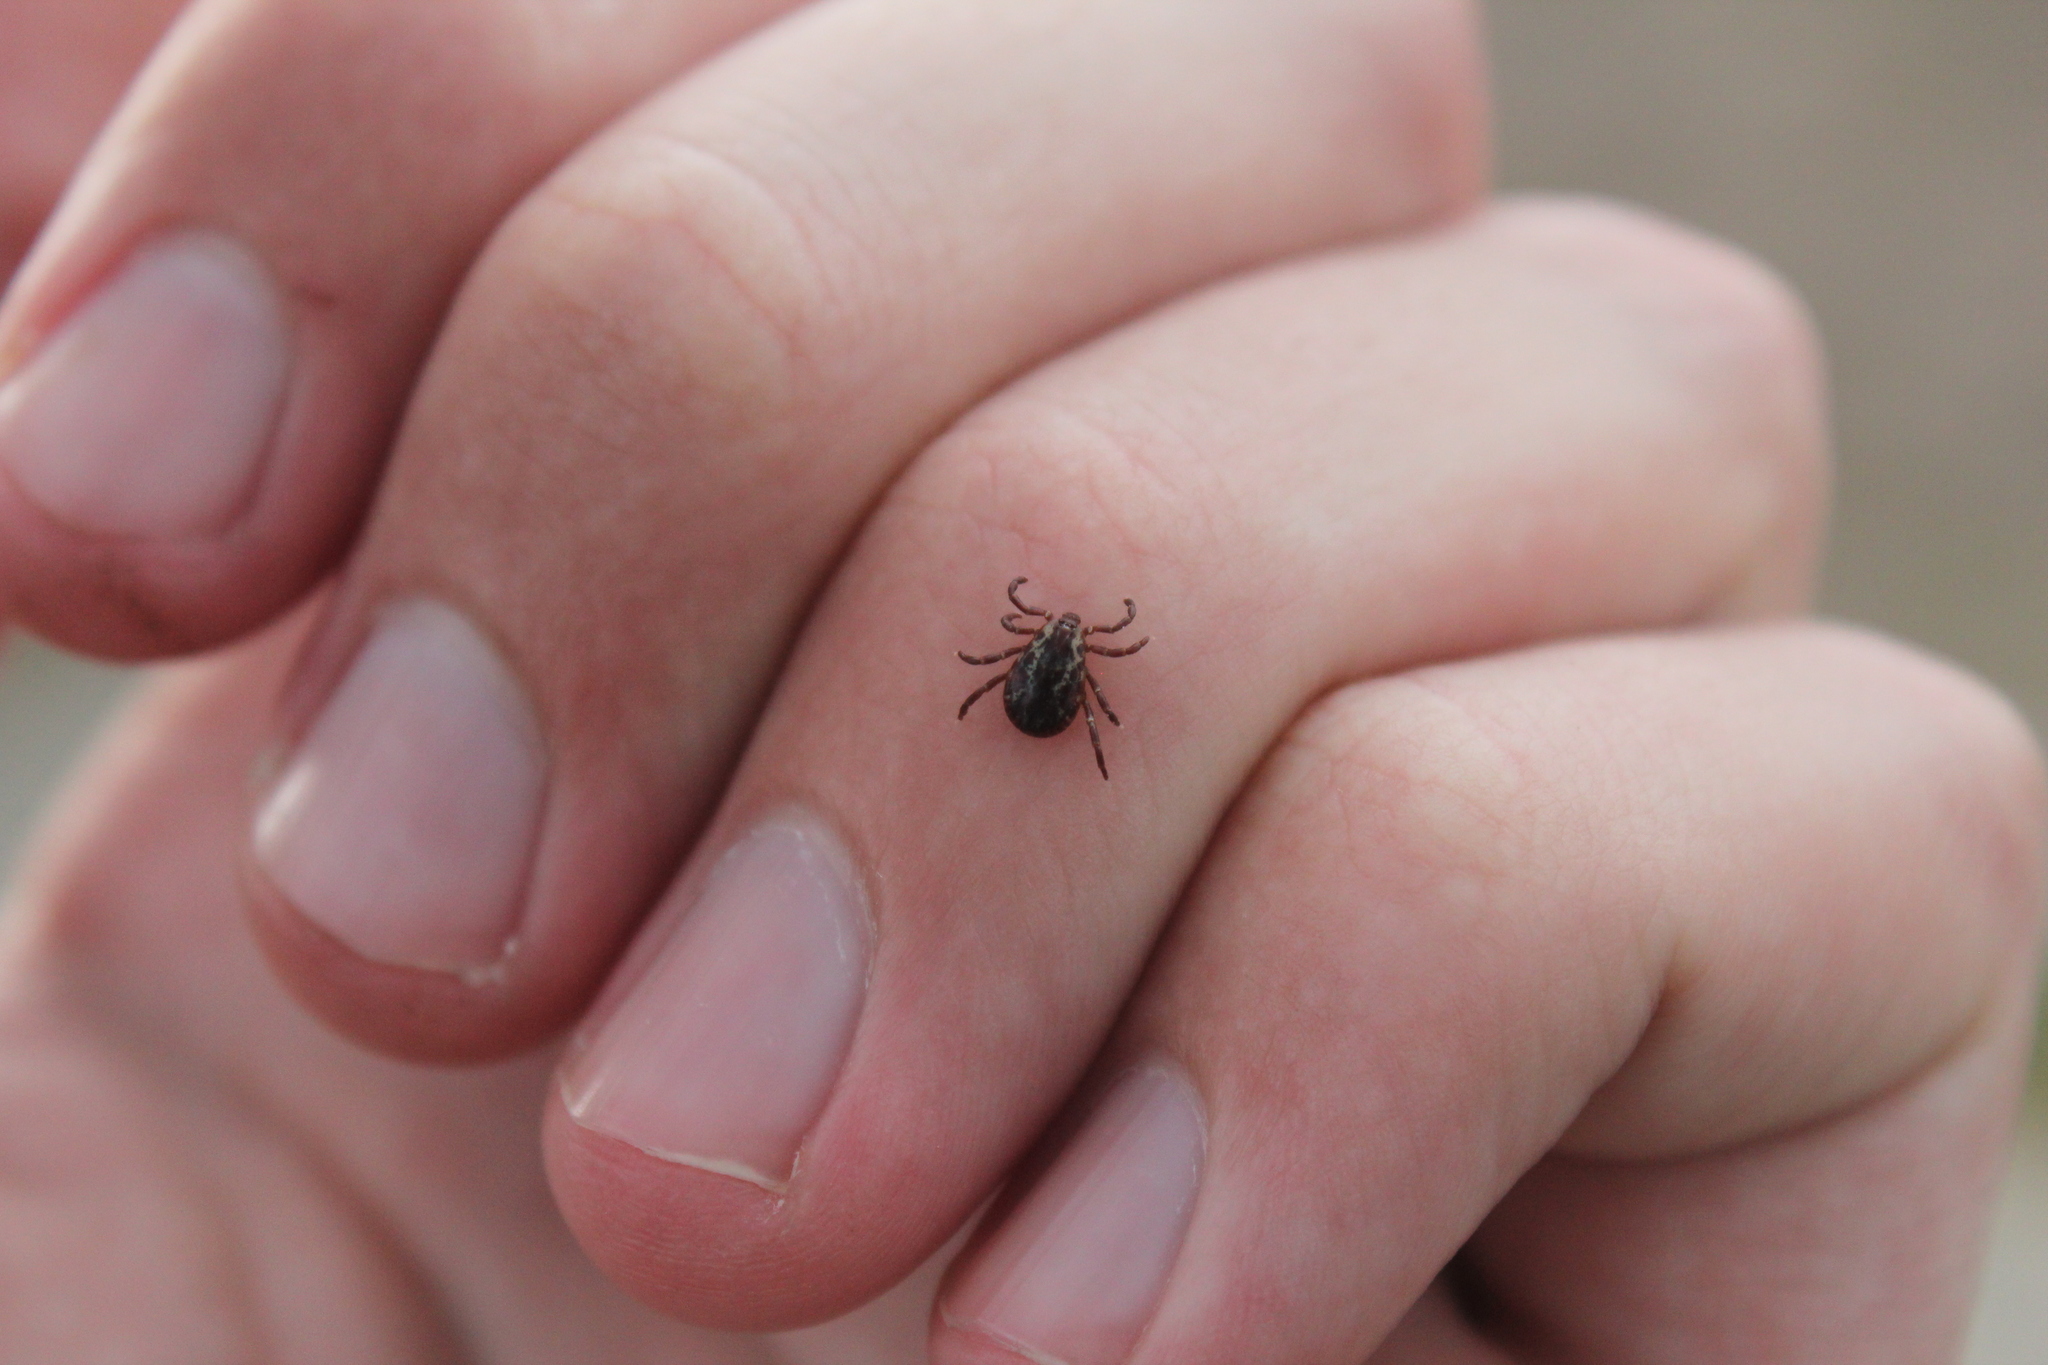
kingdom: Animalia
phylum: Arthropoda
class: Arachnida
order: Ixodida
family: Ixodidae
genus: Dermacentor
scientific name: Dermacentor variabilis
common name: American dog tick
